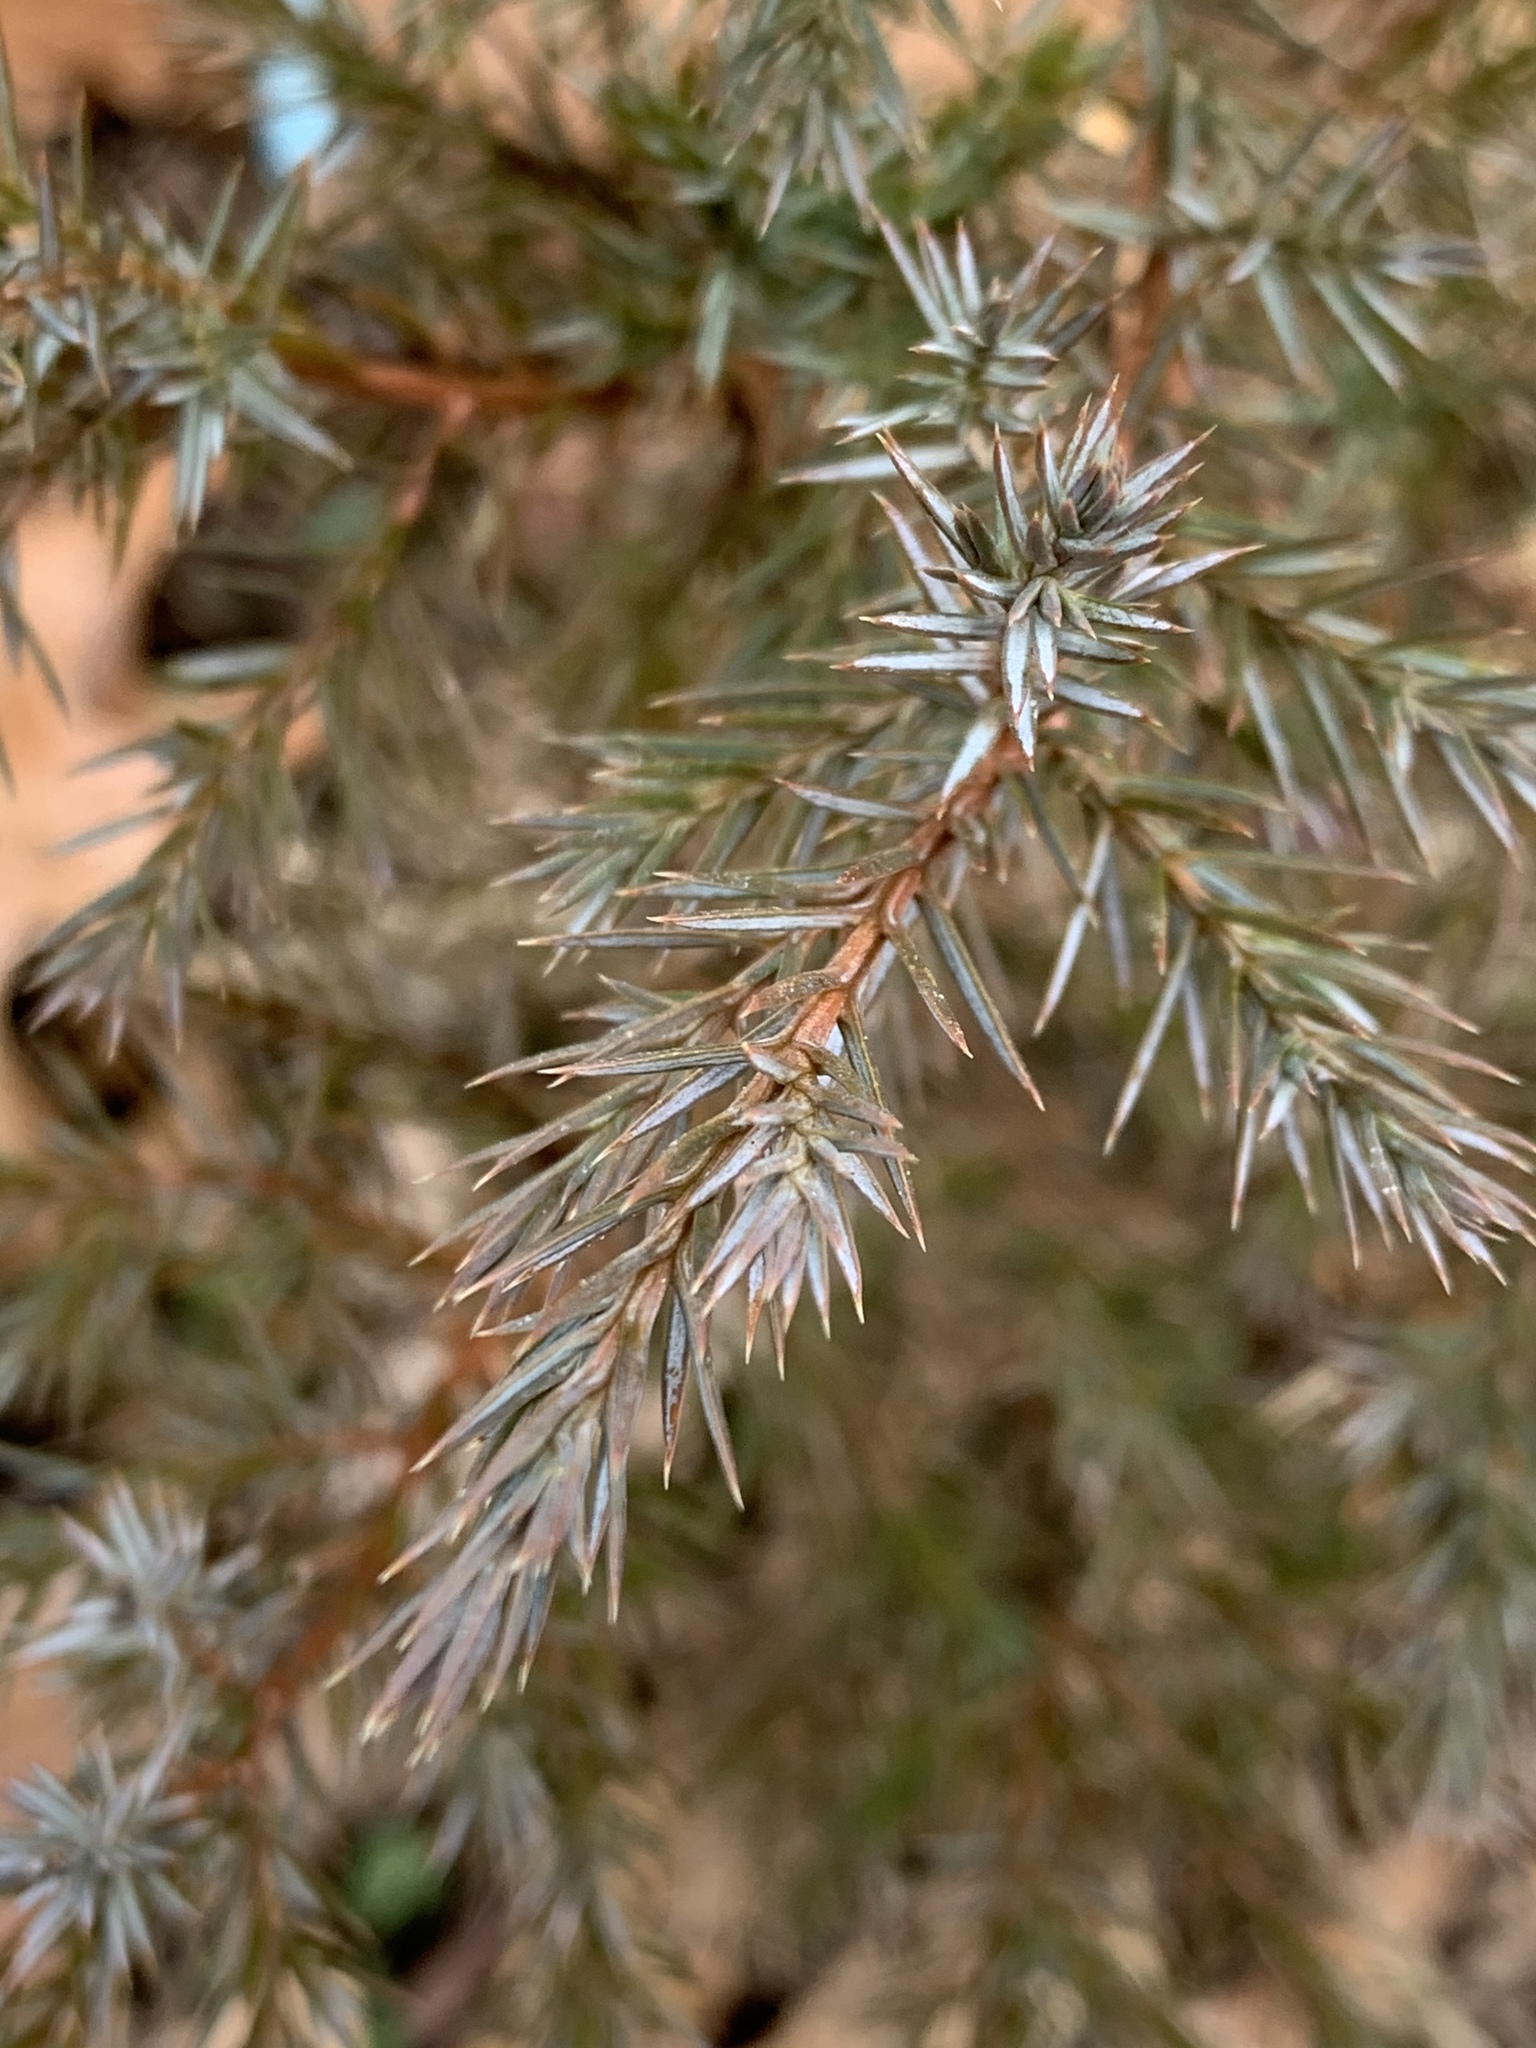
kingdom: Plantae
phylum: Tracheophyta
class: Pinopsida
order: Pinales
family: Cupressaceae
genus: Juniperus
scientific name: Juniperus virginiana
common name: Red juniper
